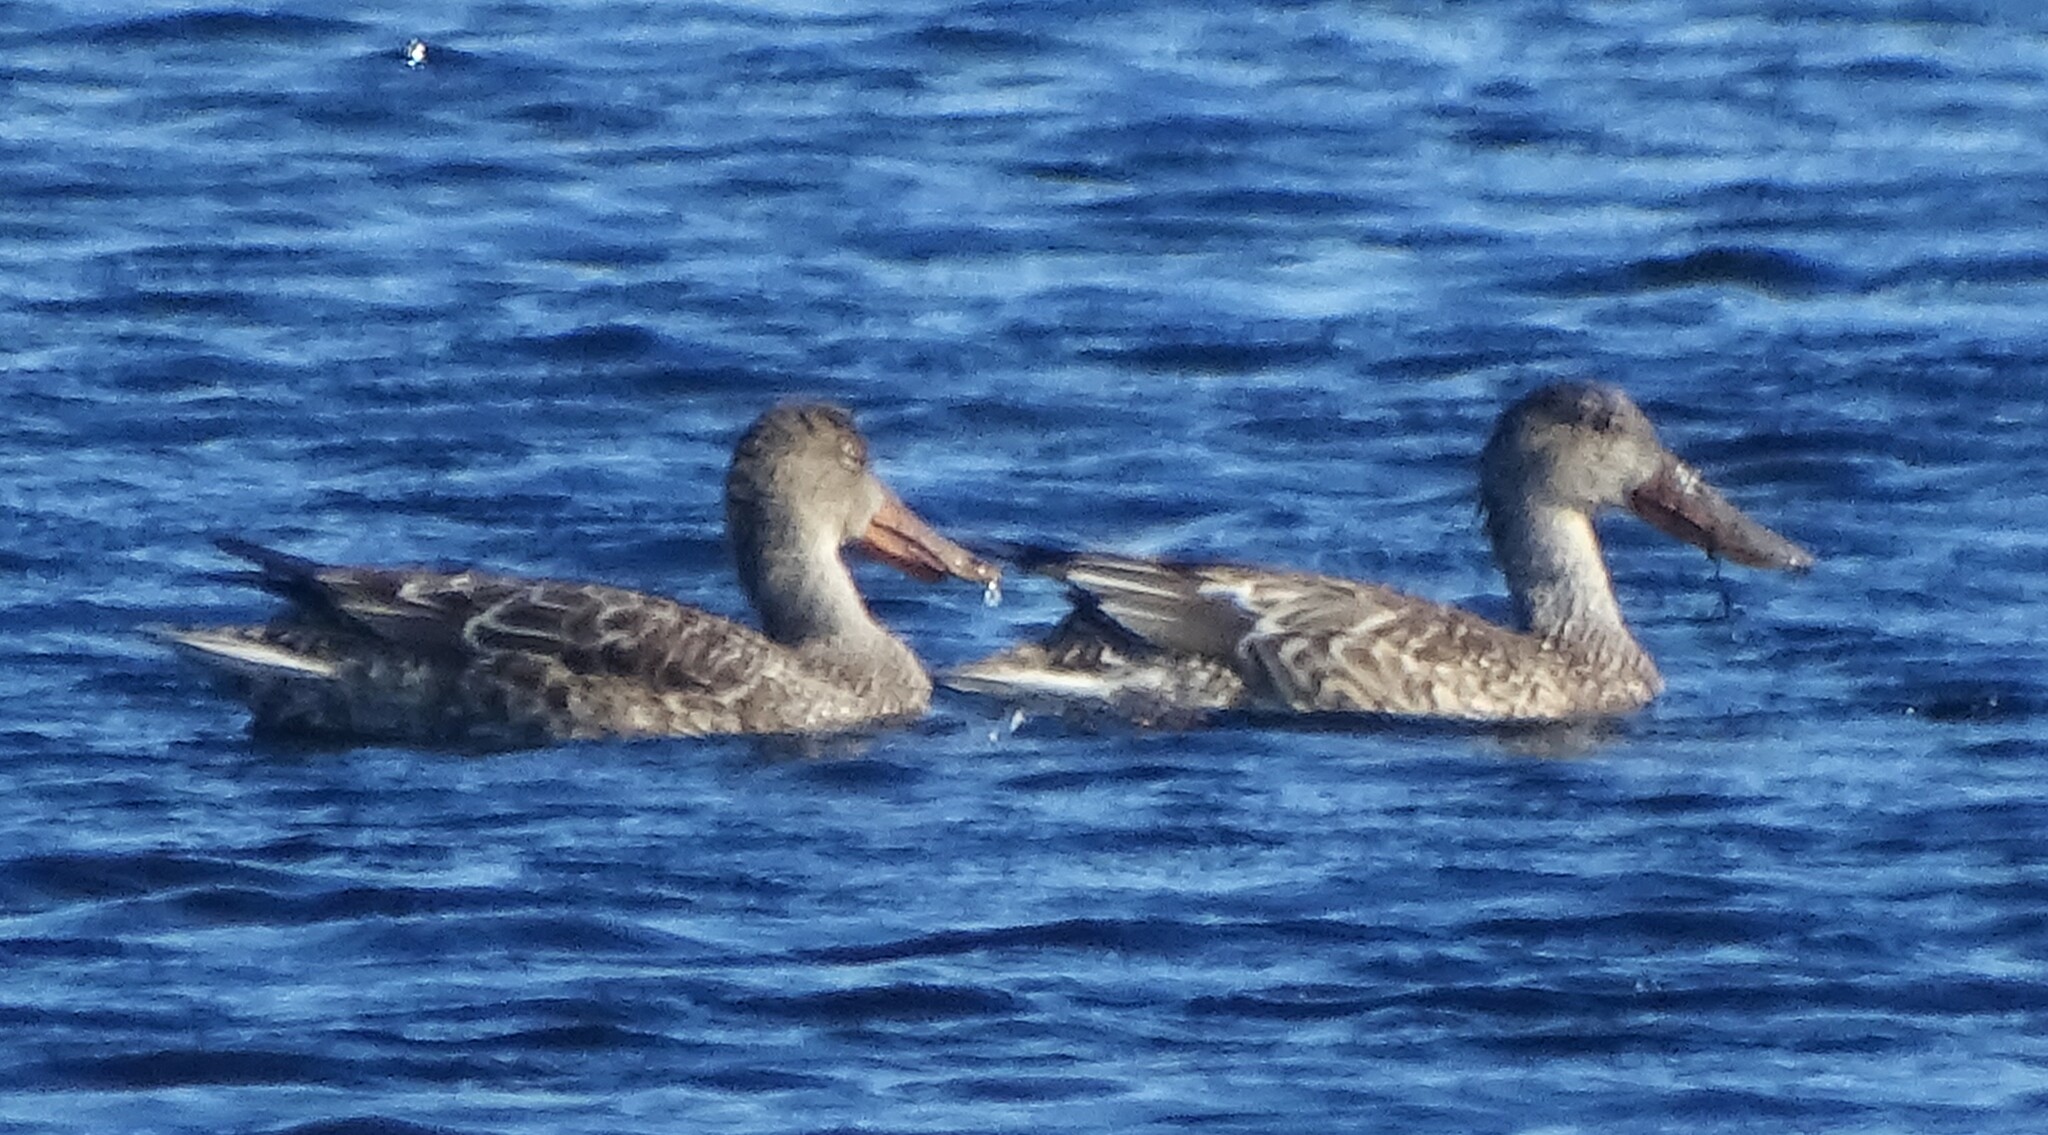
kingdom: Animalia
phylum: Chordata
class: Aves
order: Anseriformes
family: Anatidae
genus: Spatula
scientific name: Spatula clypeata
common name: Northern shoveler
